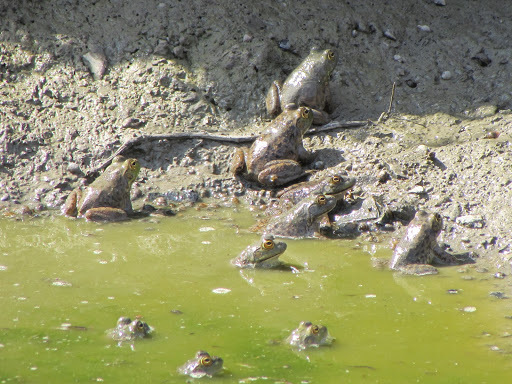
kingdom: Animalia
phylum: Chordata
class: Amphibia
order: Anura
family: Ranidae
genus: Lithobates
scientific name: Lithobates catesbeianus
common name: American bullfrog
